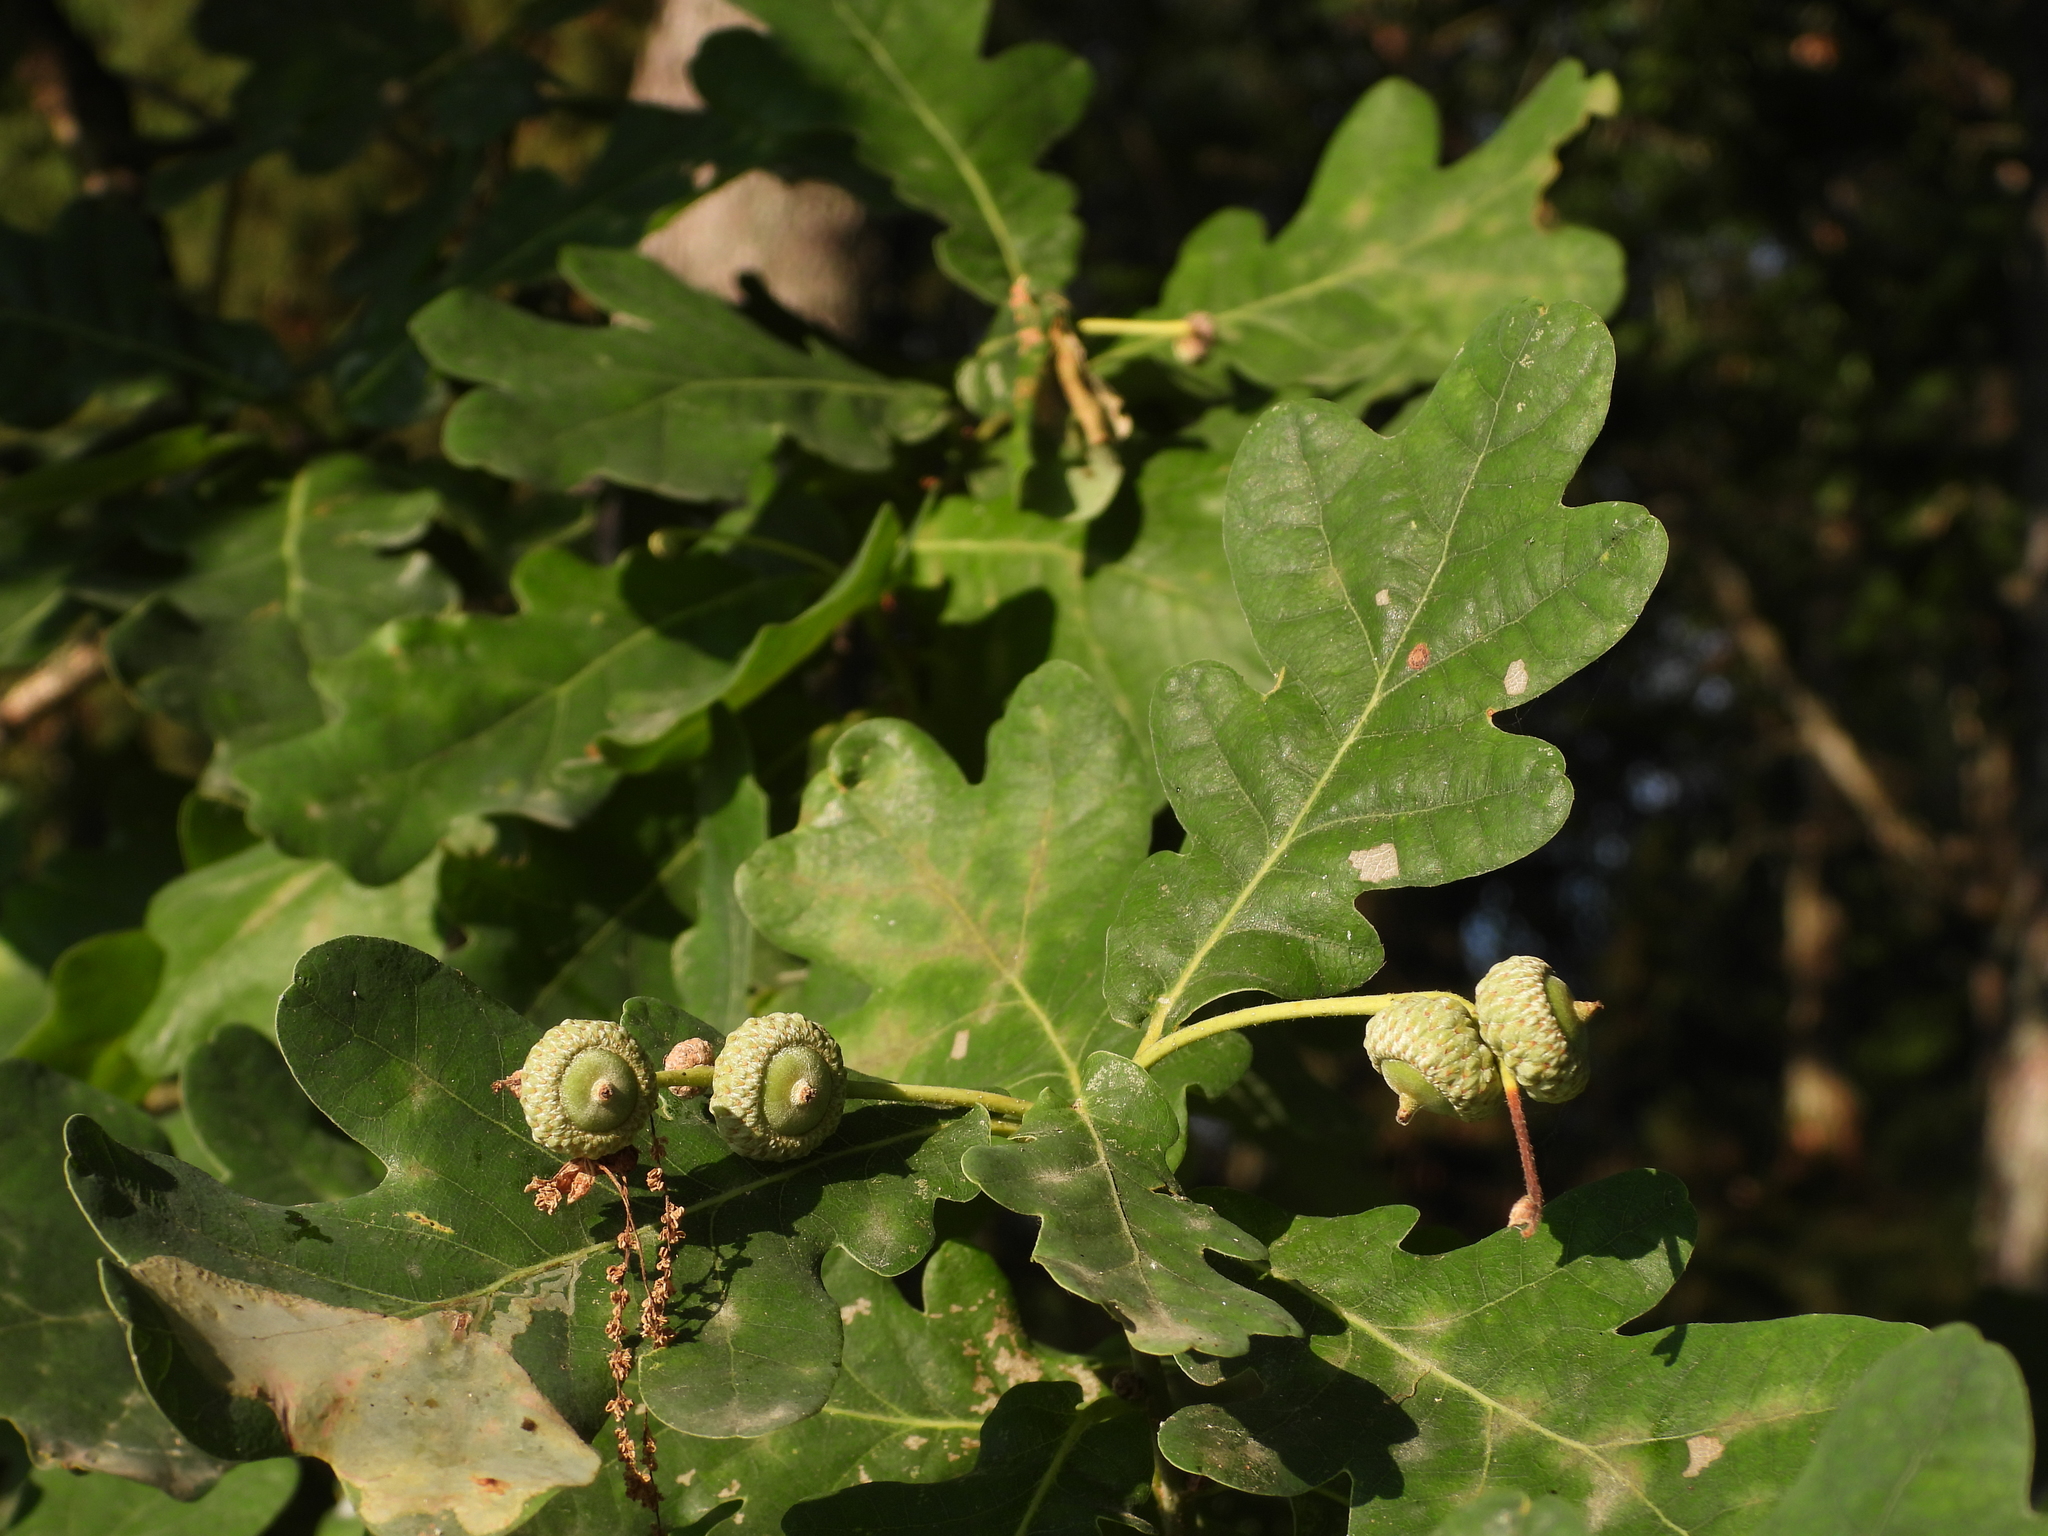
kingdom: Plantae
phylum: Tracheophyta
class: Magnoliopsida
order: Fagales
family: Fagaceae
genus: Quercus
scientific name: Quercus robur
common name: Pedunculate oak
